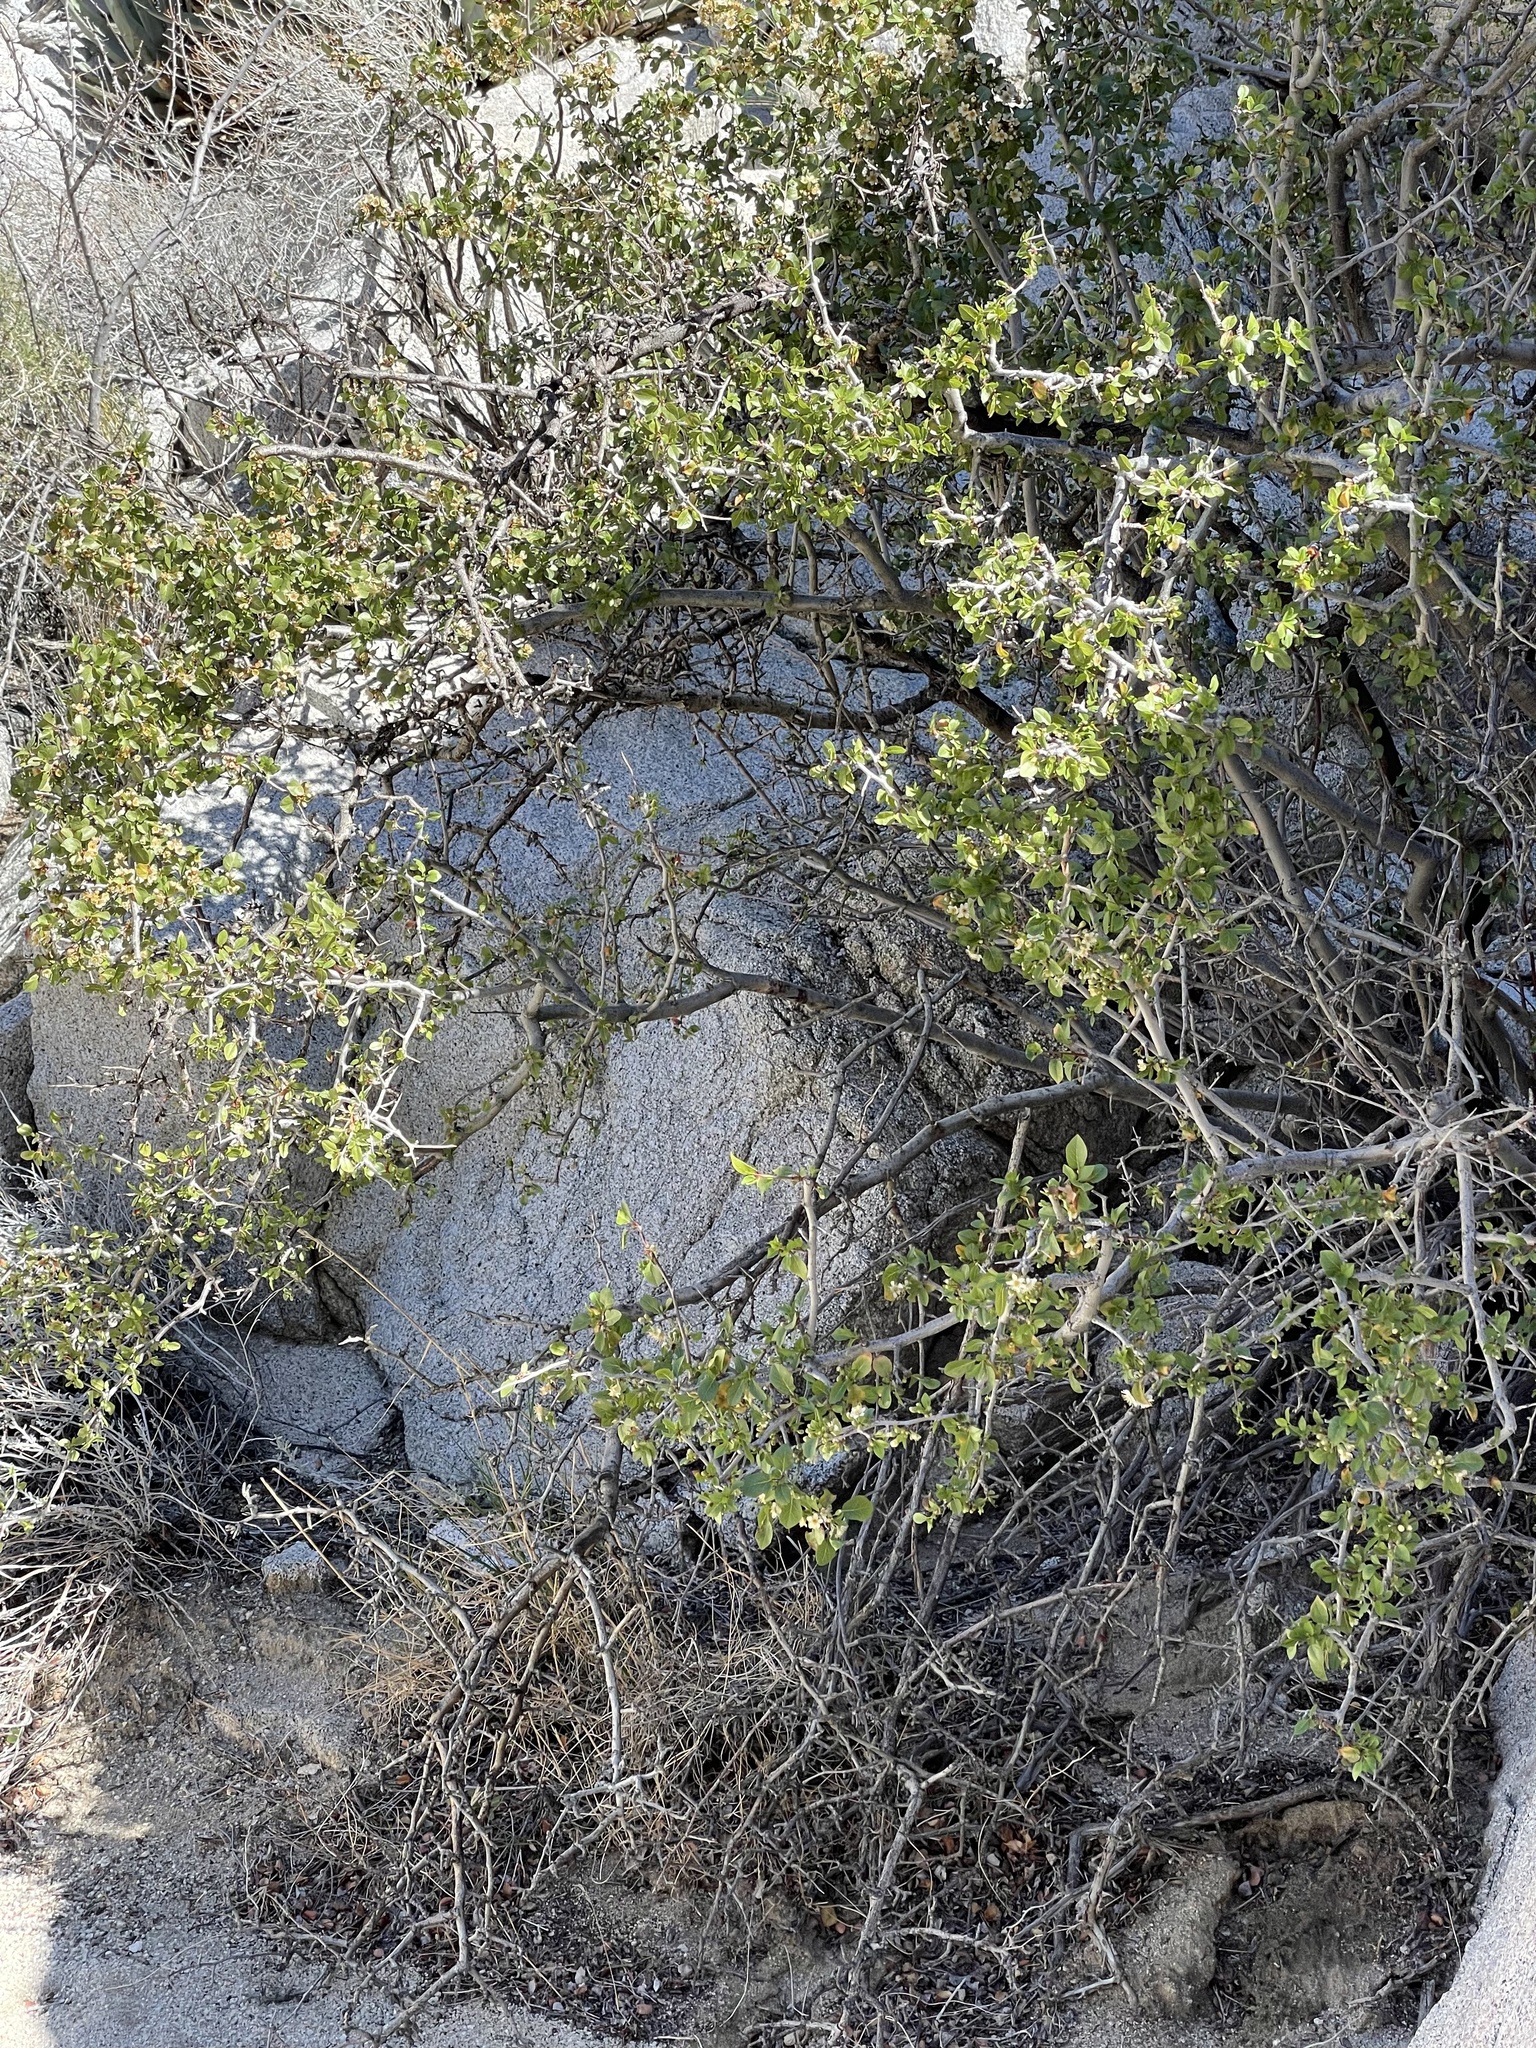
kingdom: Plantae
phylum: Tracheophyta
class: Magnoliopsida
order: Rosales
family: Rosaceae
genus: Prunus
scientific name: Prunus fremontii
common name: Desert apricot
